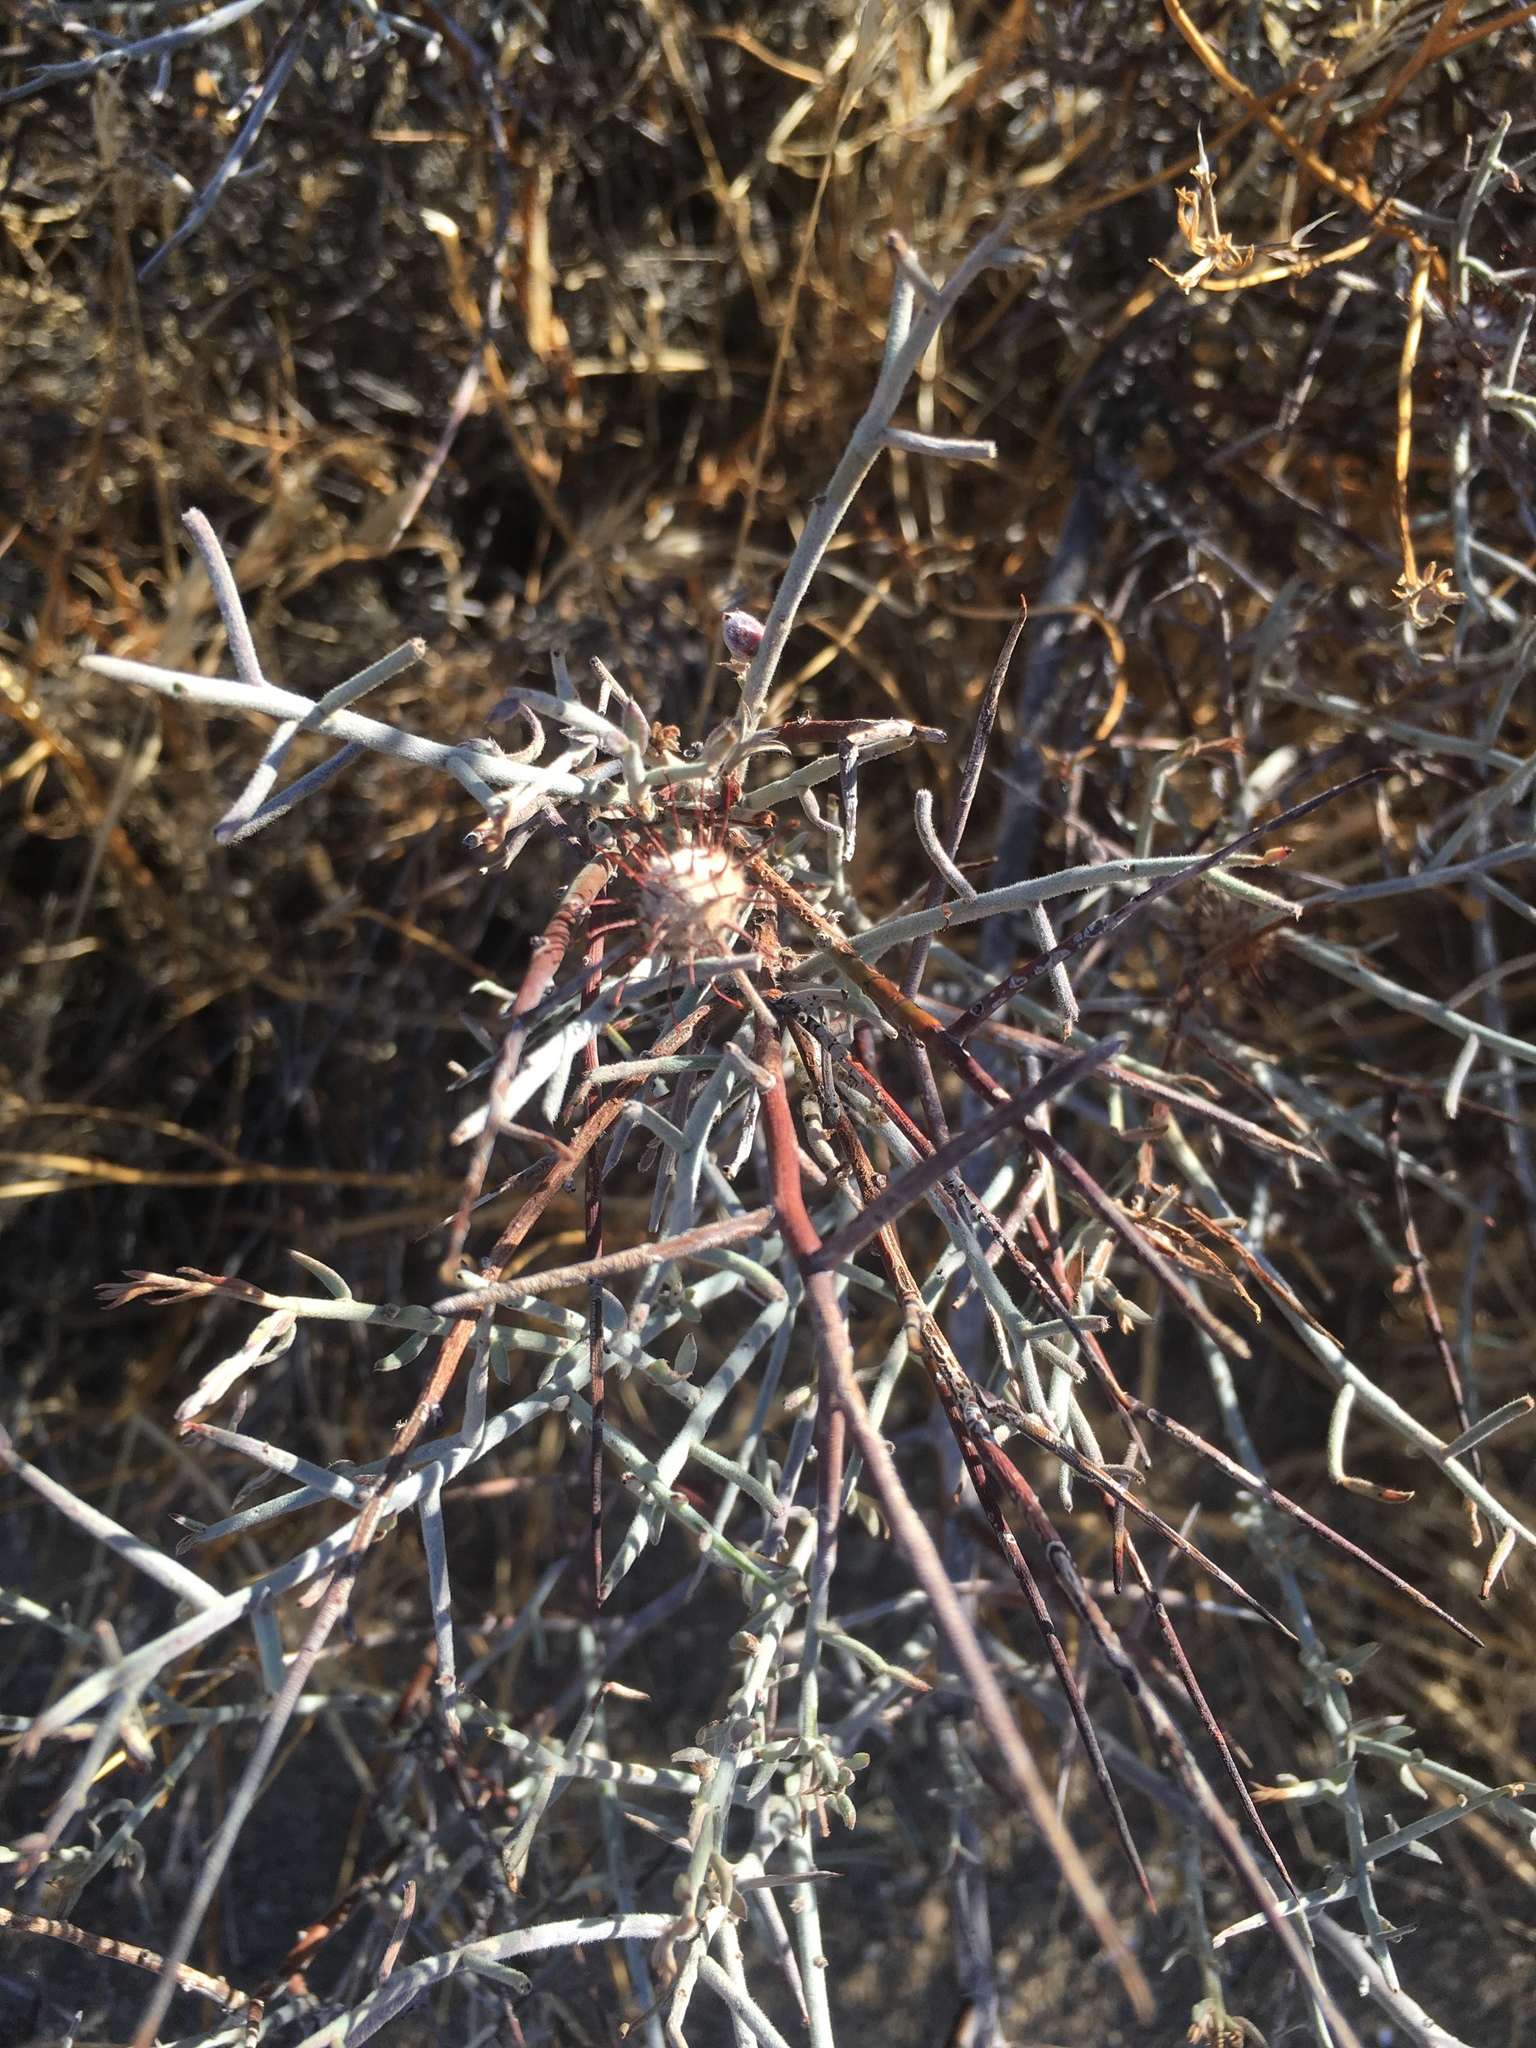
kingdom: Plantae
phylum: Tracheophyta
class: Magnoliopsida
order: Zygophyllales
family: Krameriaceae
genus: Krameria
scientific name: Krameria bicolor
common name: White ratany
